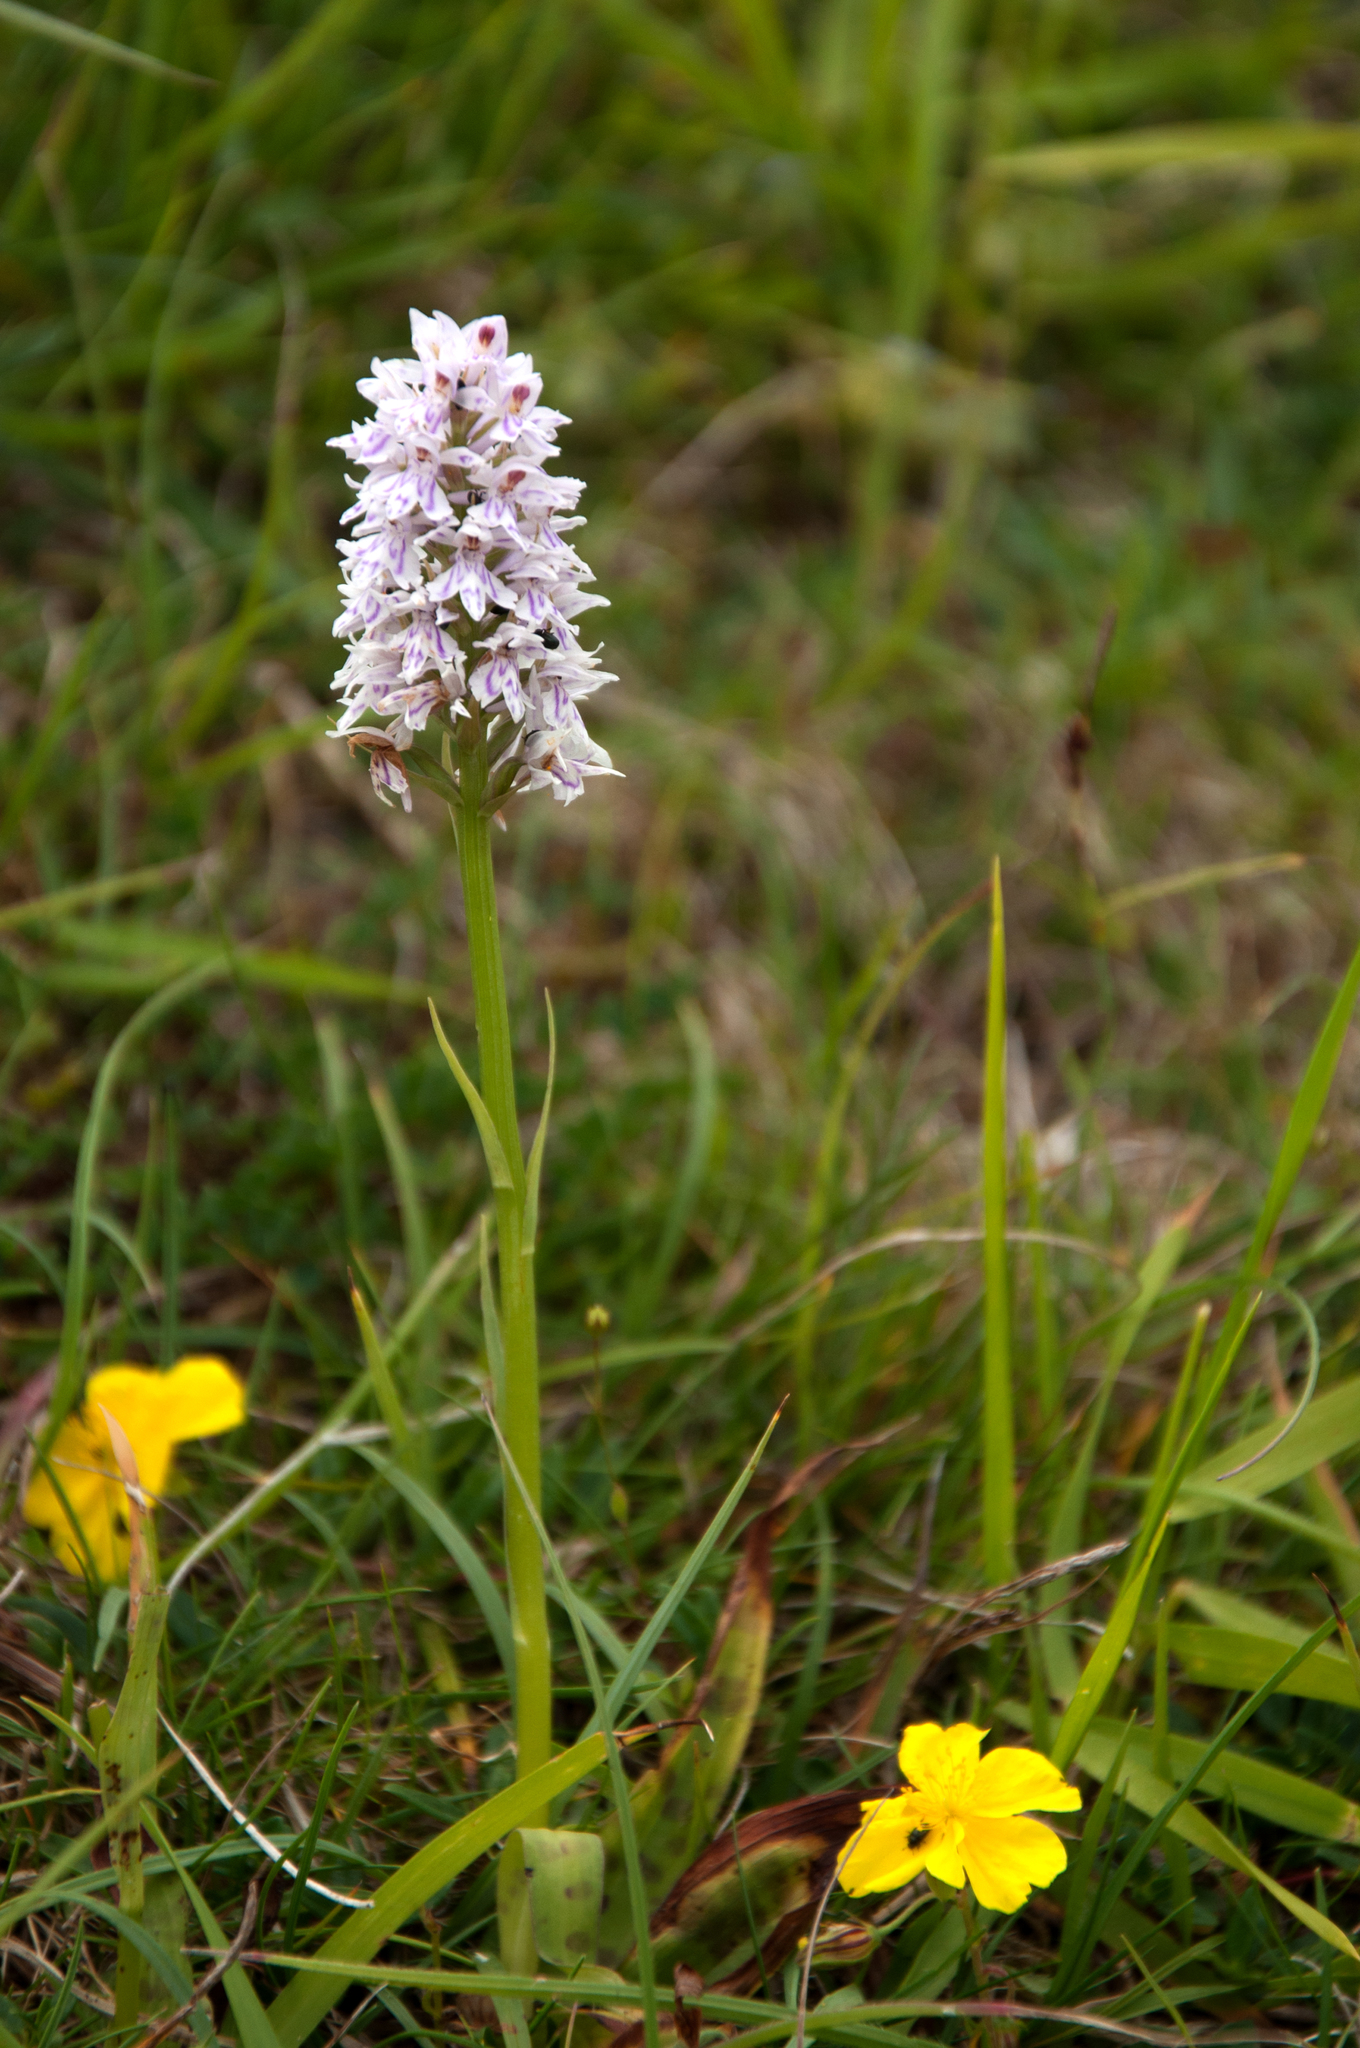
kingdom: Plantae
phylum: Tracheophyta
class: Liliopsida
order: Asparagales
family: Orchidaceae
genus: Dactylorhiza
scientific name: Dactylorhiza maculata
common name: Heath spotted-orchid
